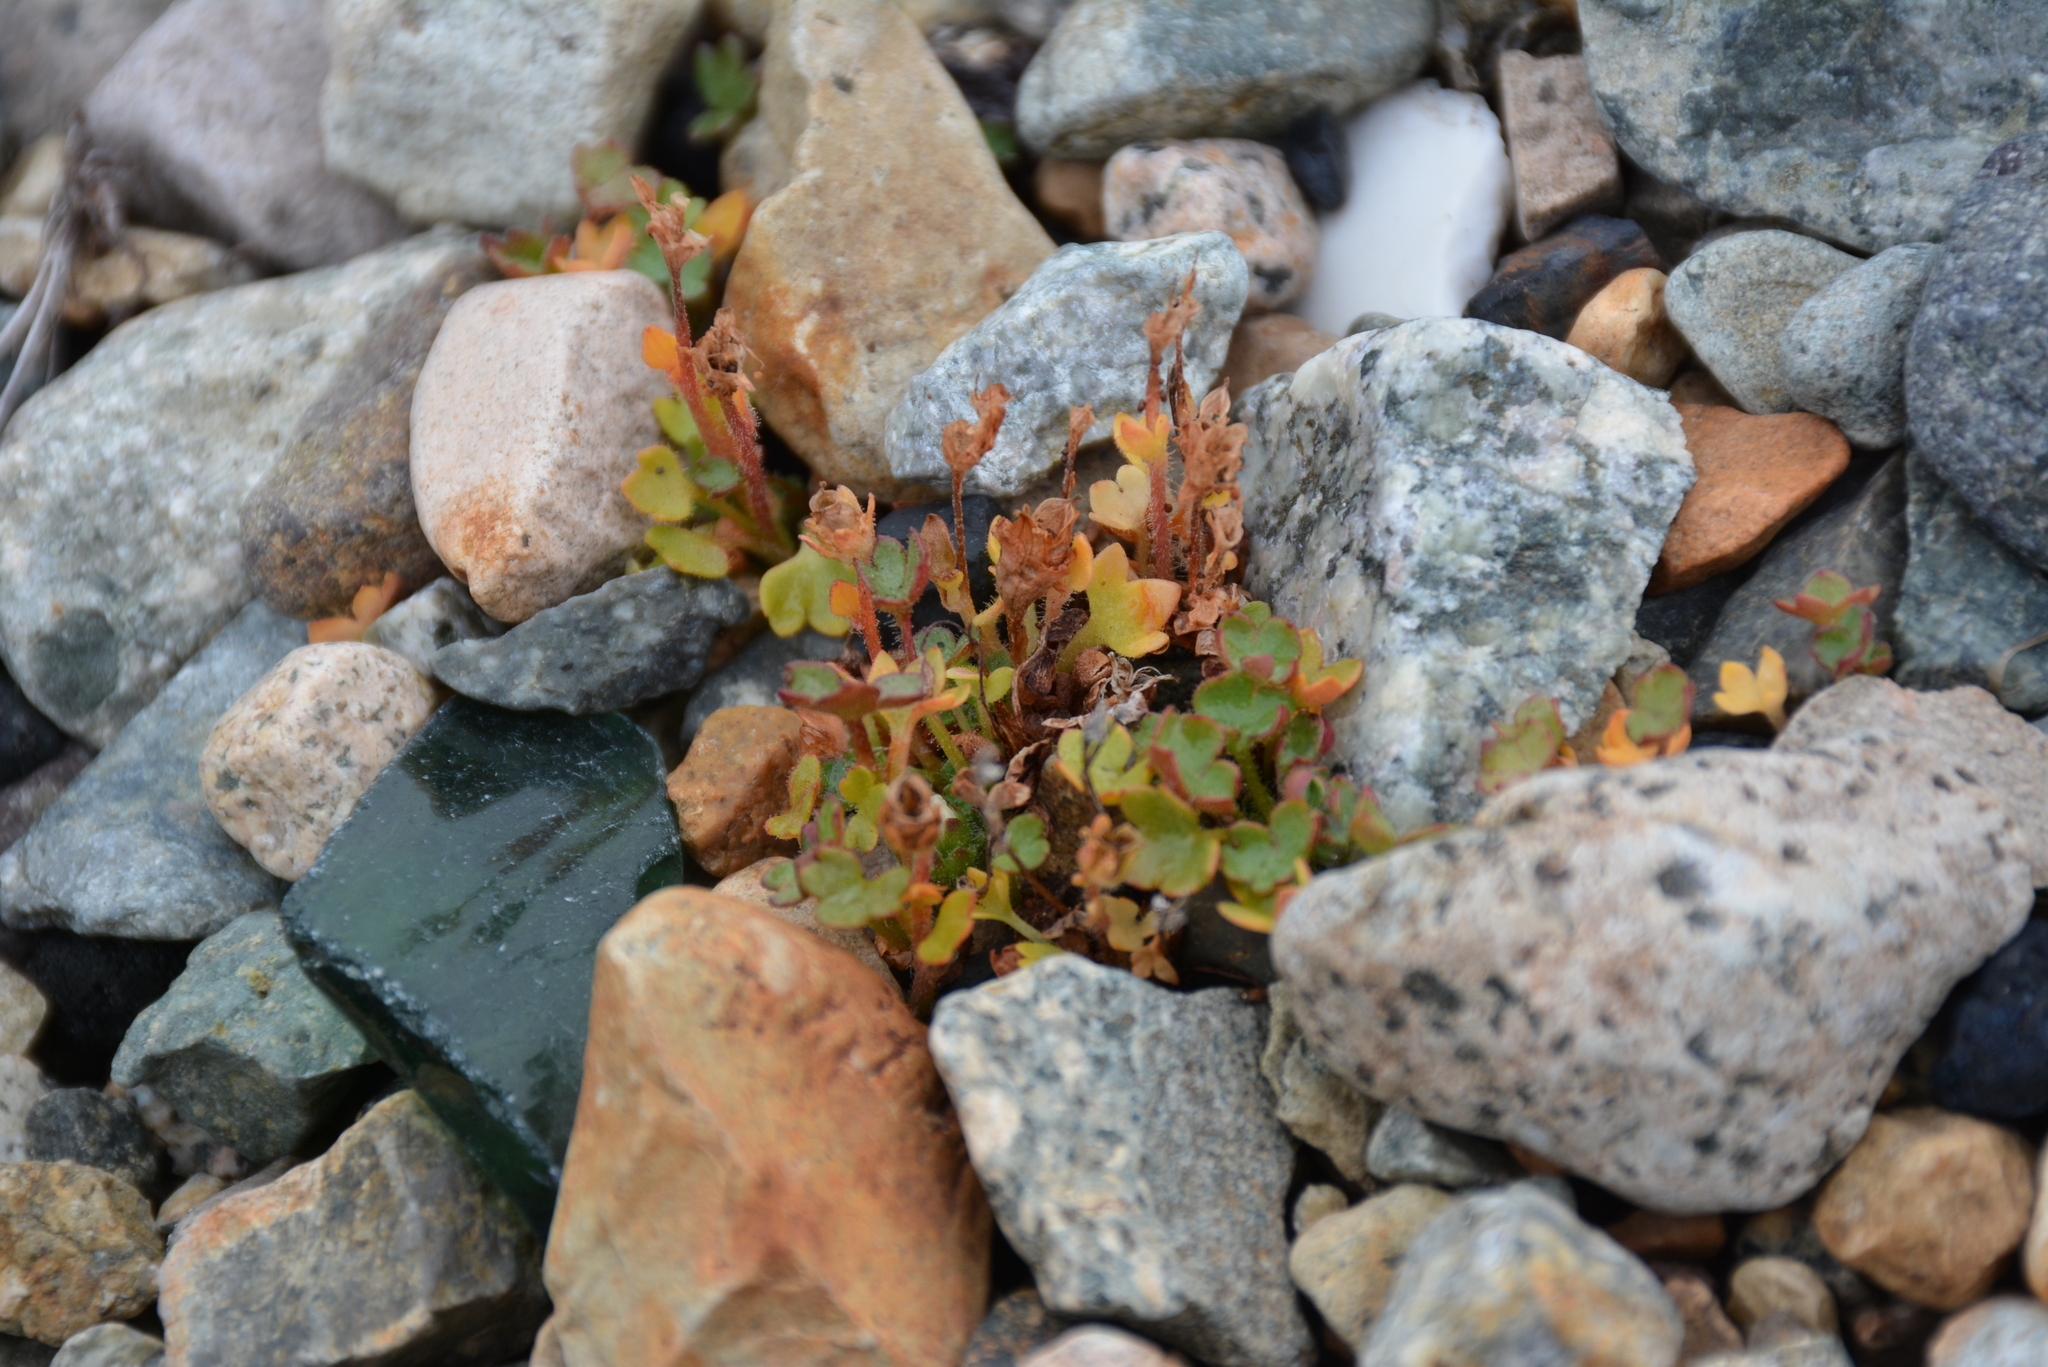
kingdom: Plantae
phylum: Tracheophyta
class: Magnoliopsida
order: Saxifragales
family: Saxifragaceae
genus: Saxifraga
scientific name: Saxifraga hyperborea
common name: Arctic saxifrage
